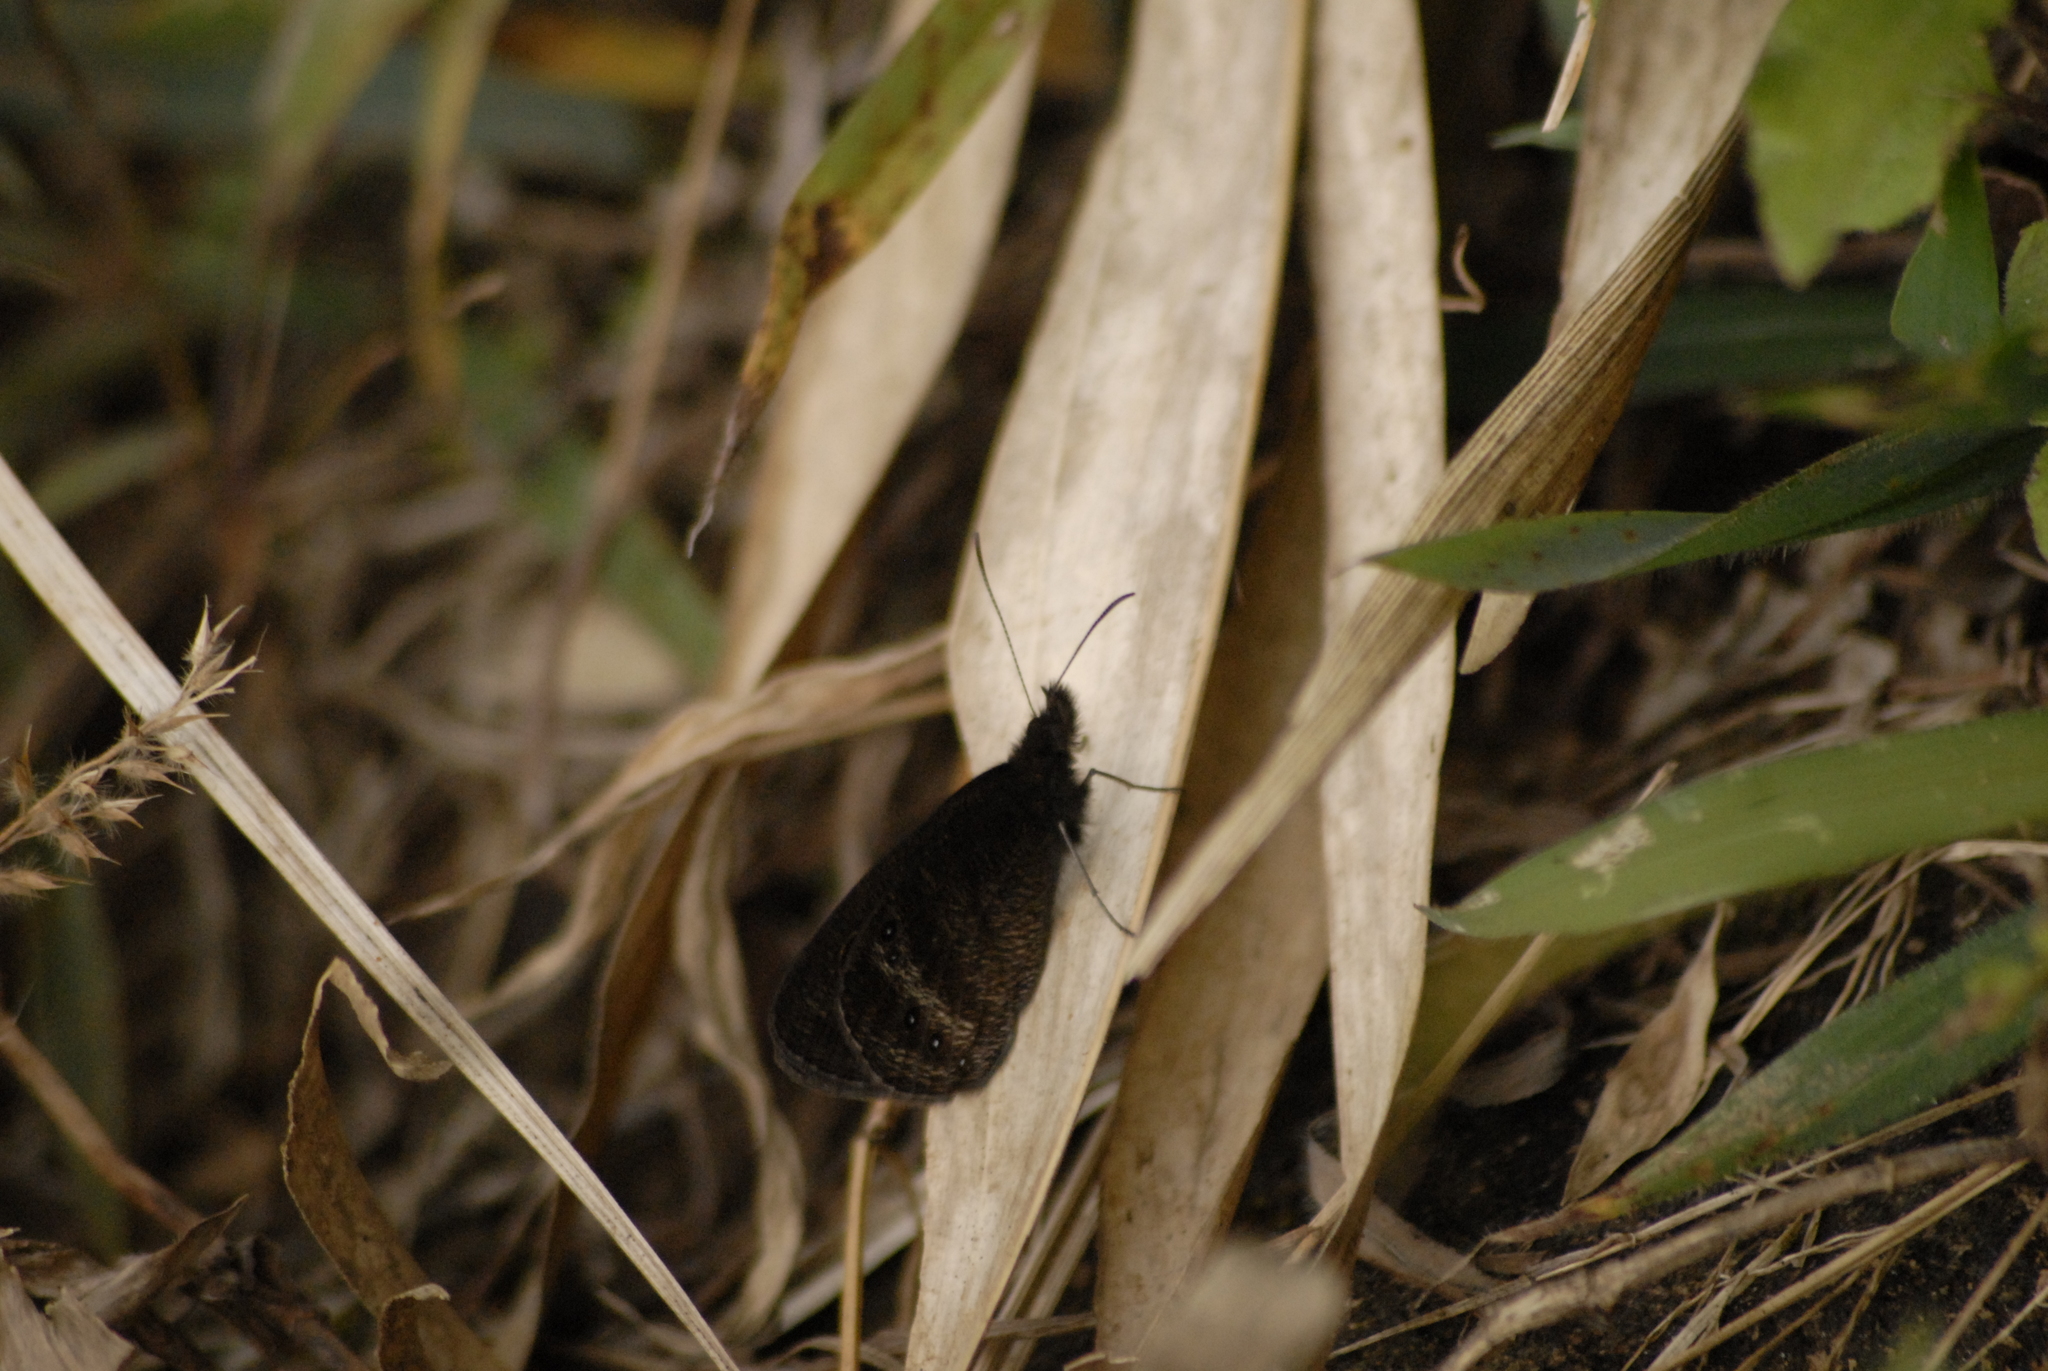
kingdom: Animalia
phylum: Arthropoda
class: Insecta
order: Lepidoptera
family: Nymphalidae
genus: Ypthima
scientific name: Ypthima ypthimoides
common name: Palni four-ring
